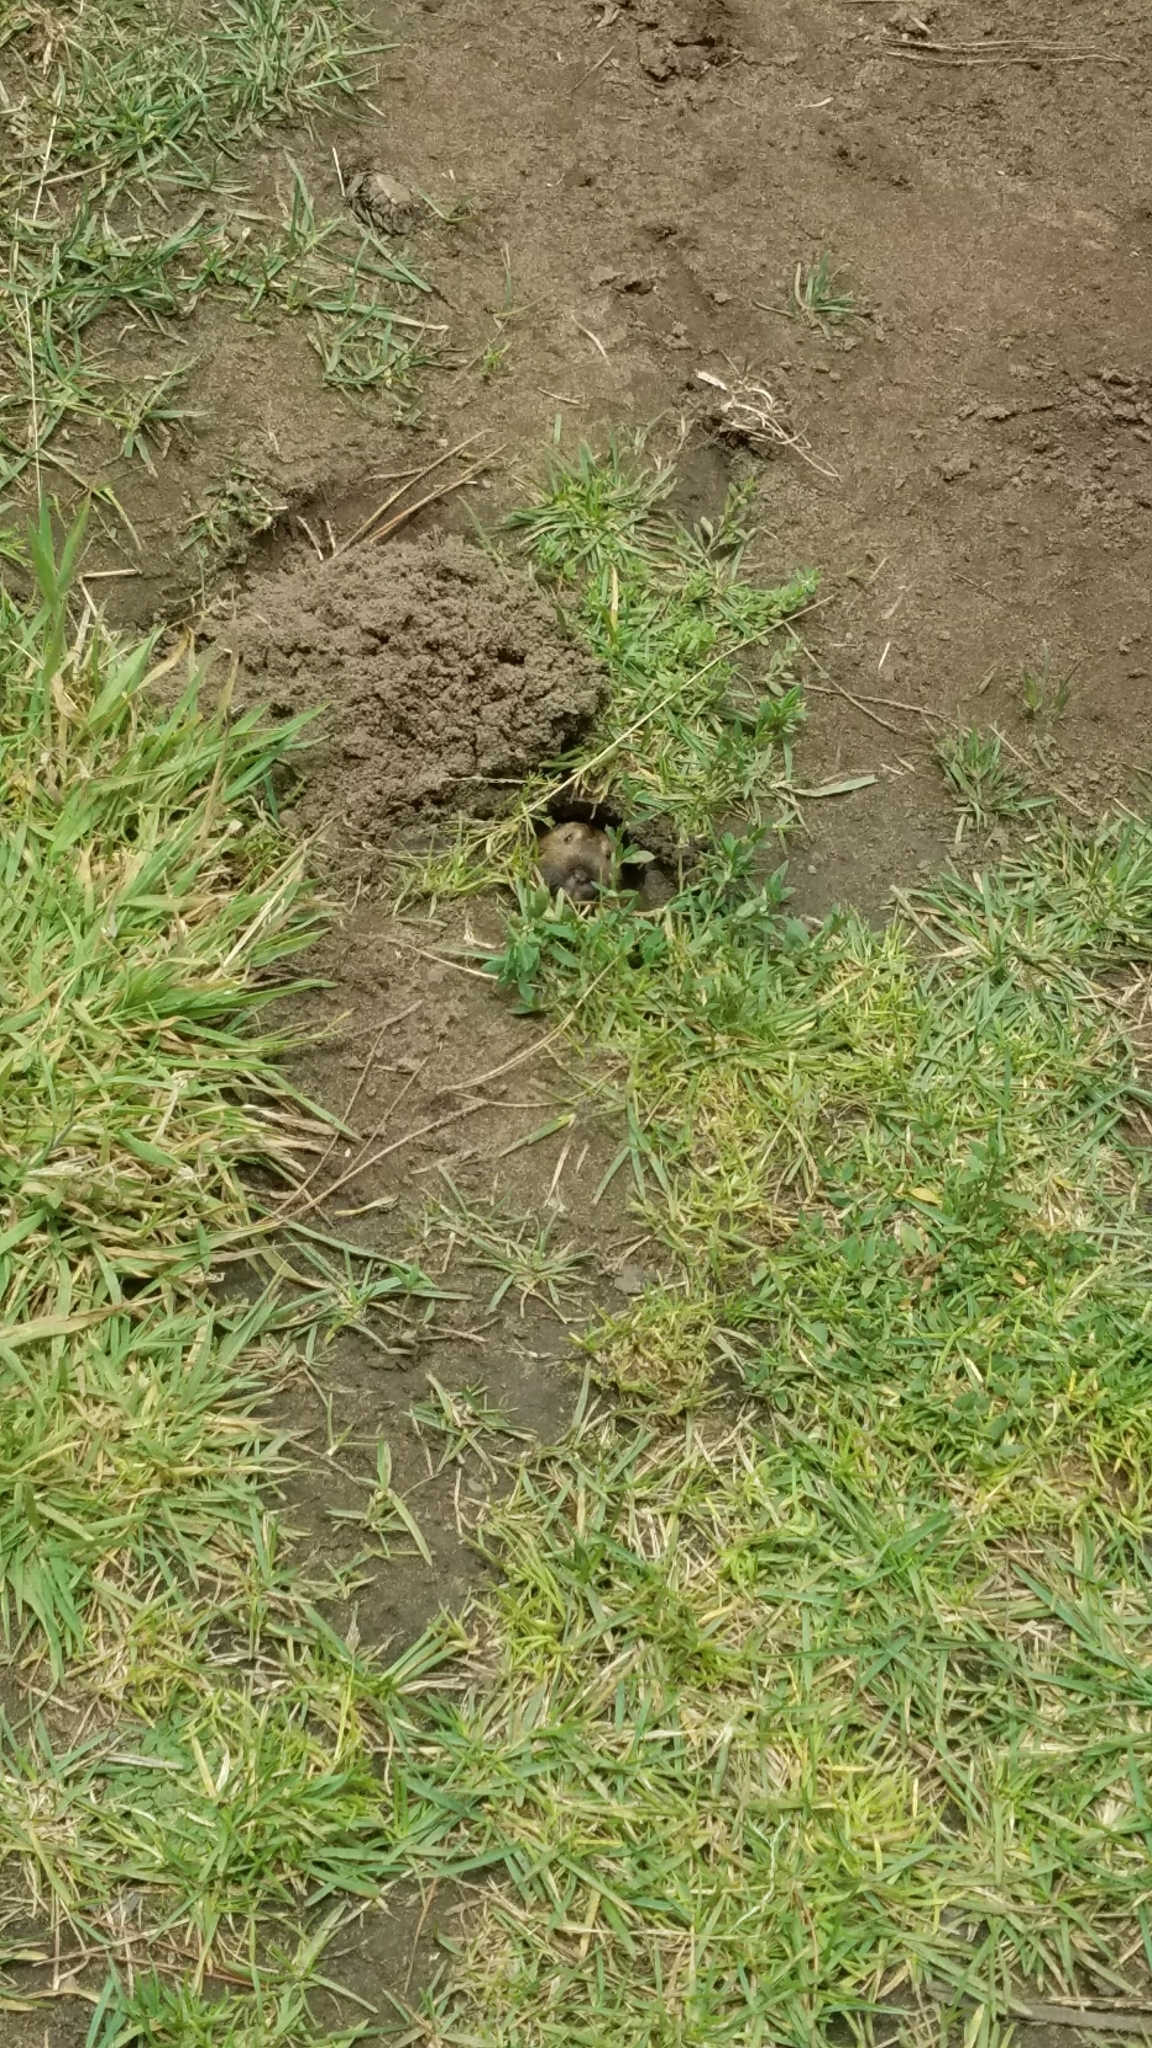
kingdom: Animalia
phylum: Chordata
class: Mammalia
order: Rodentia
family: Geomyidae
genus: Thomomys
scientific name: Thomomys bottae
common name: Botta's pocket gopher
